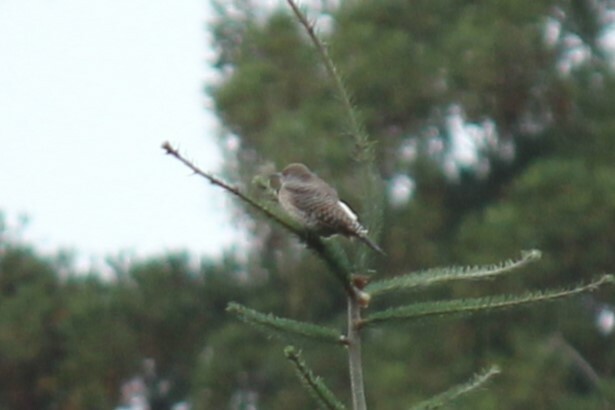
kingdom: Animalia
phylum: Chordata
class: Aves
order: Piciformes
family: Picidae
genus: Colaptes
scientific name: Colaptes auratus
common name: Northern flicker
